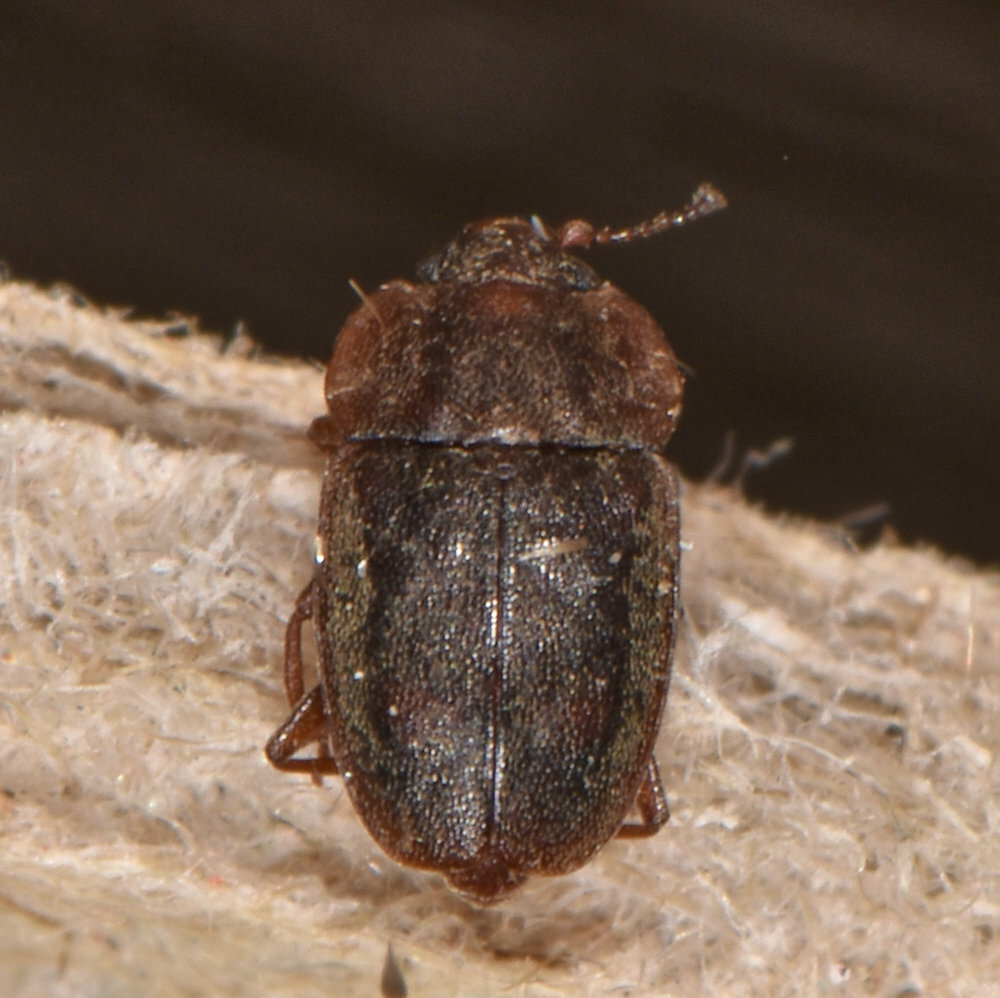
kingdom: Animalia
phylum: Arthropoda
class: Insecta
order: Coleoptera
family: Nitidulidae
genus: Epuraea
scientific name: Epuraea rufa
